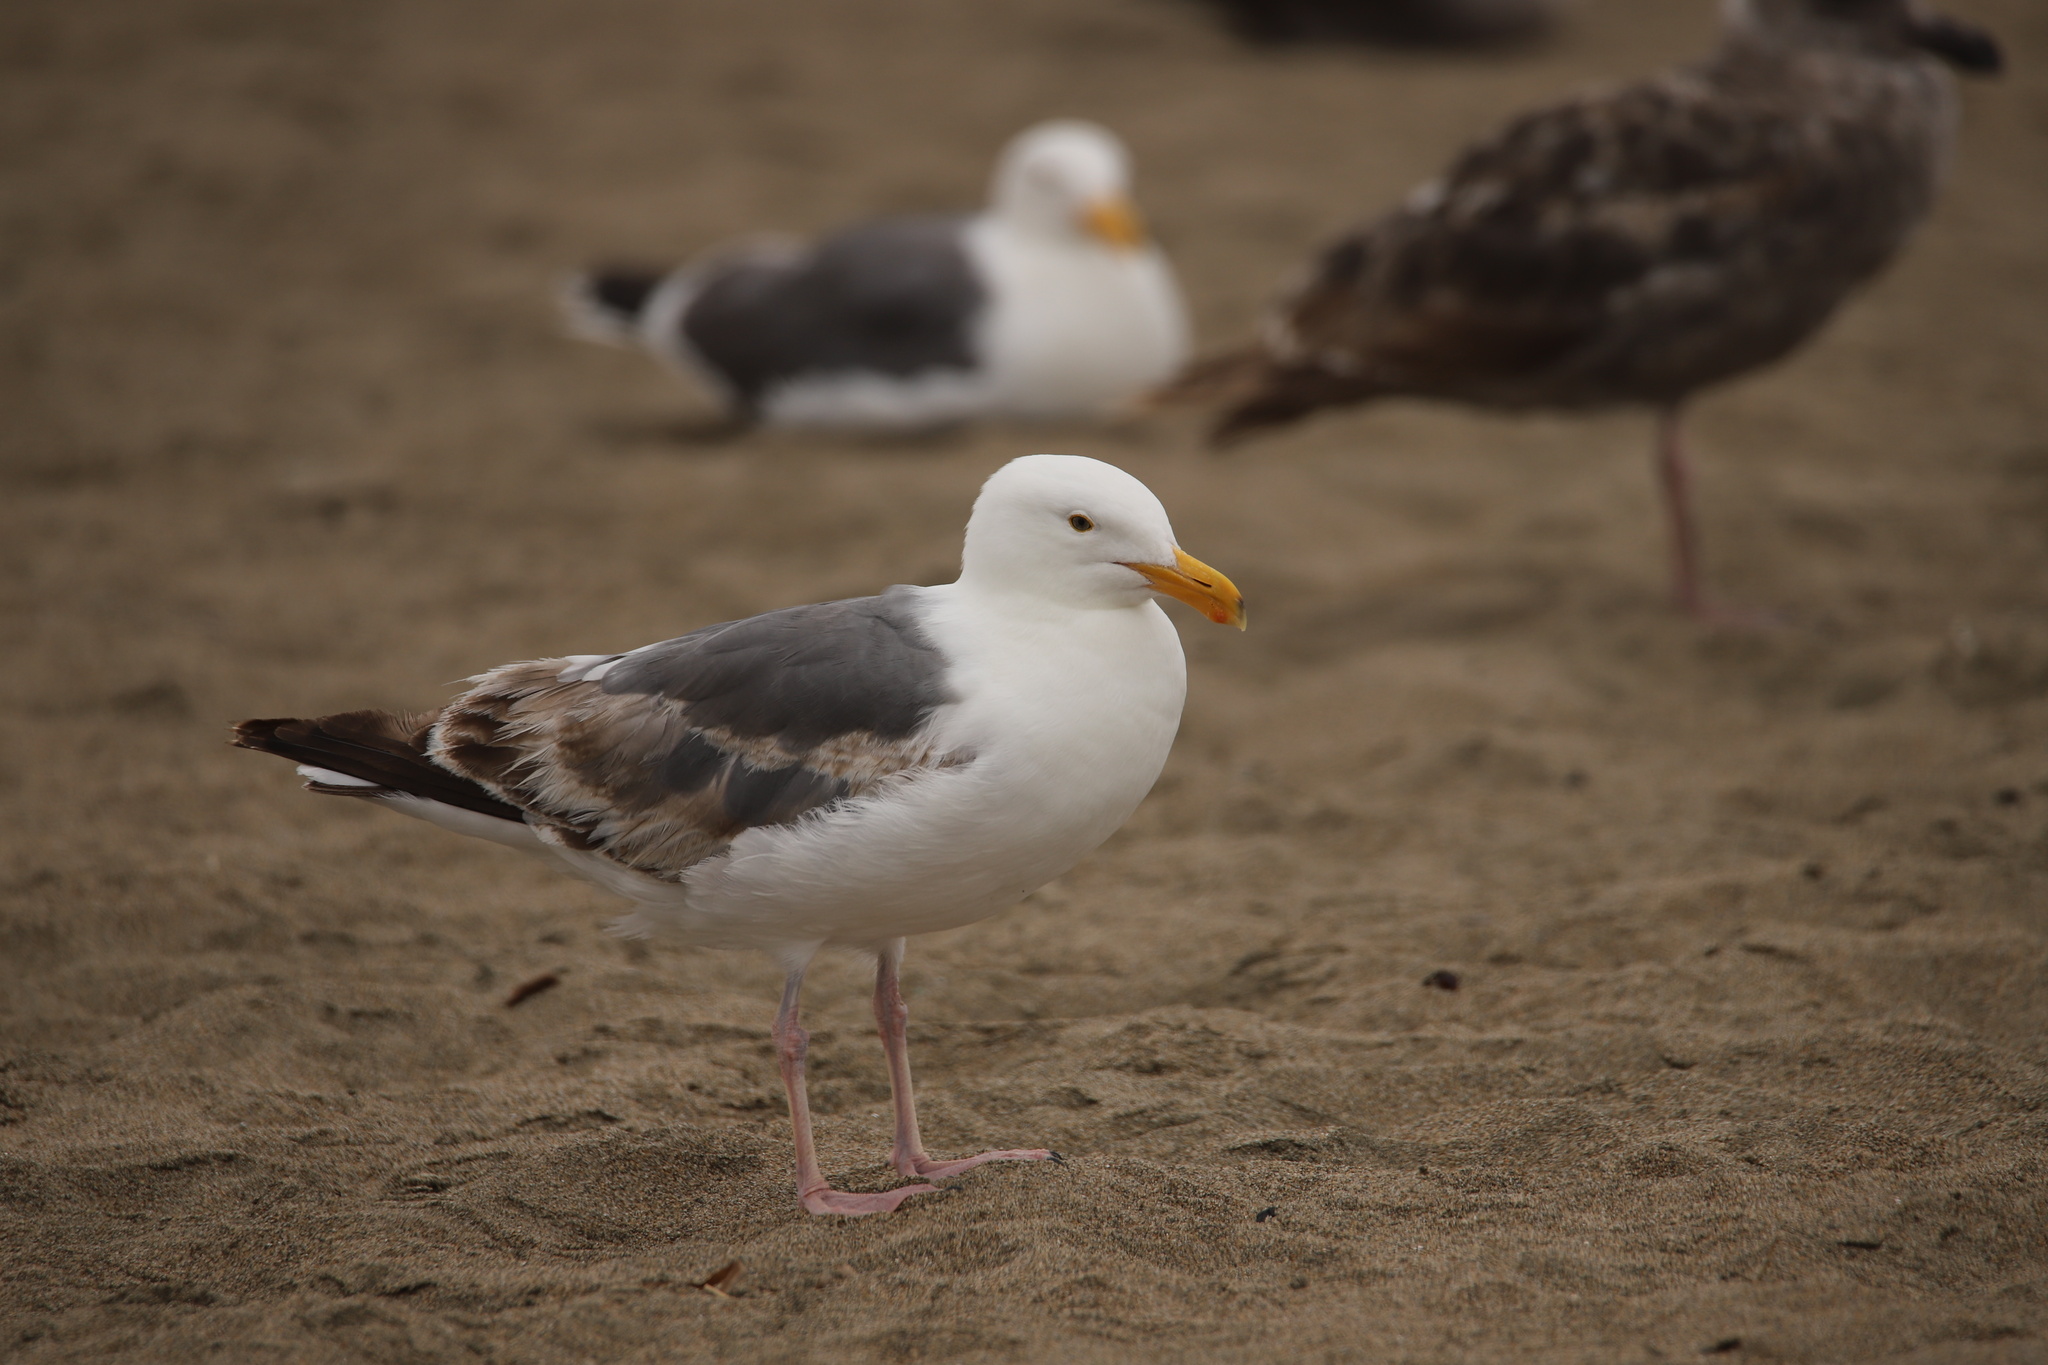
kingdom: Animalia
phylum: Chordata
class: Aves
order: Charadriiformes
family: Laridae
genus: Larus
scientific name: Larus occidentalis
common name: Western gull
